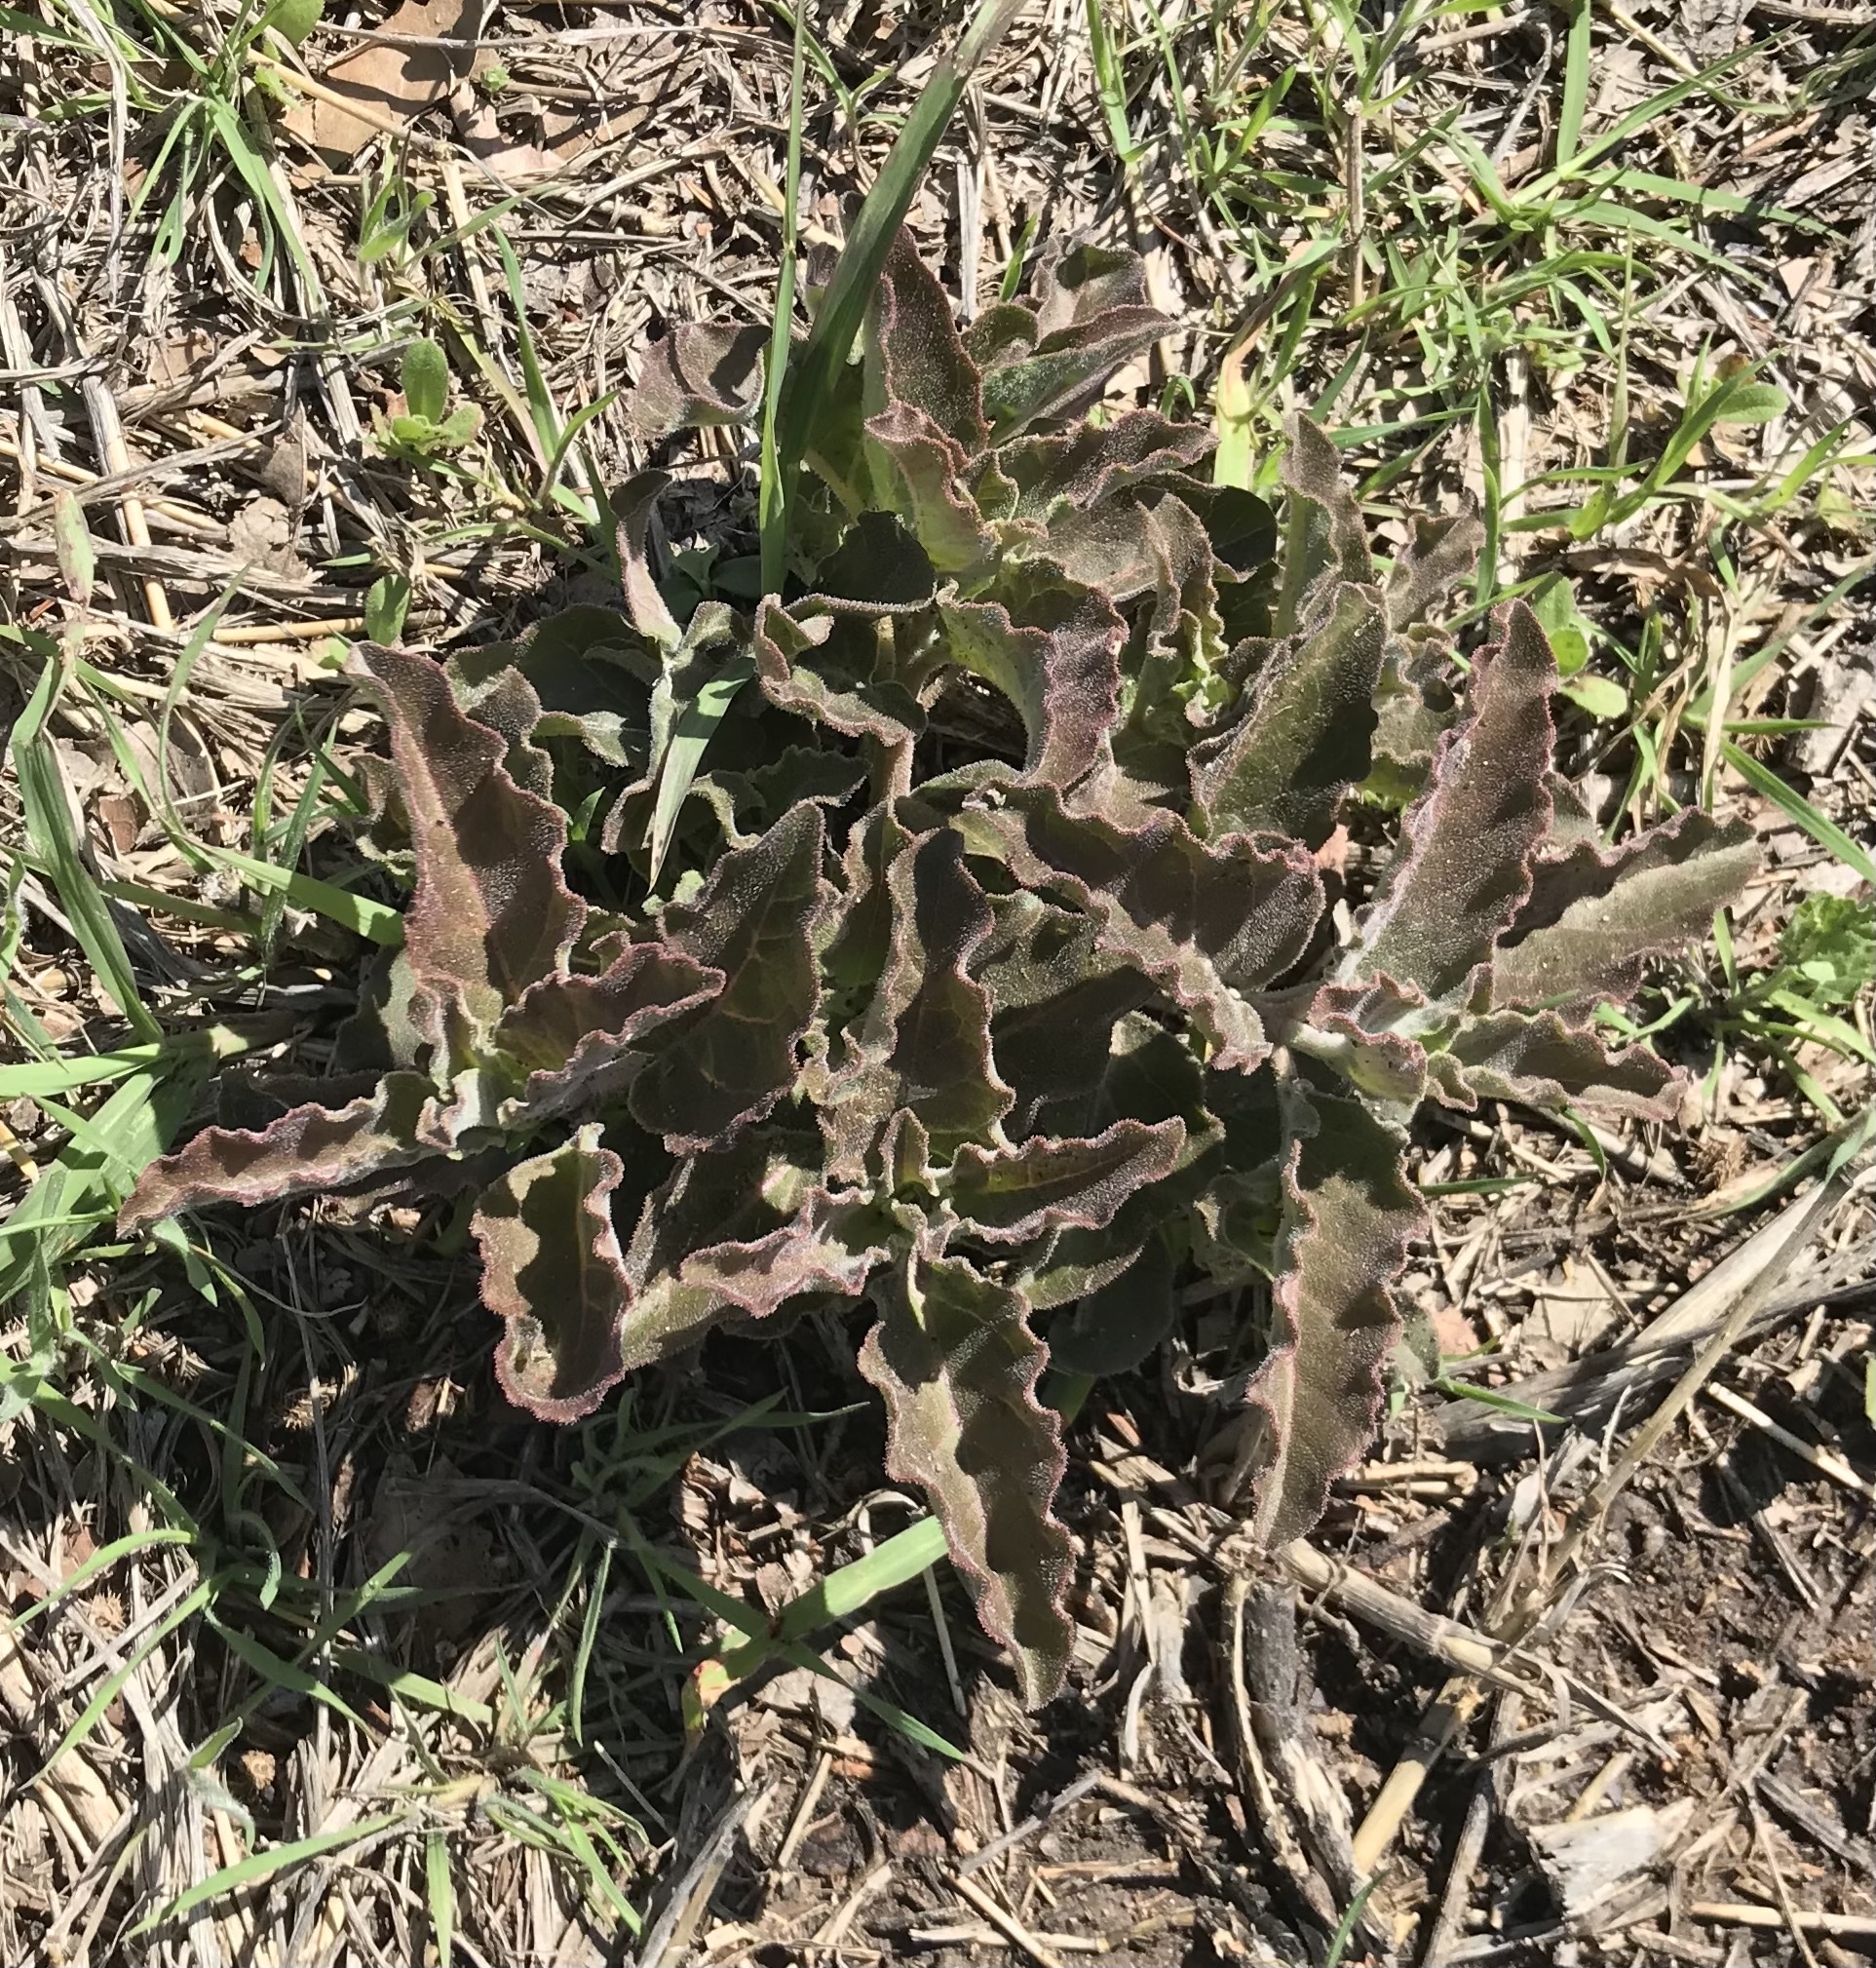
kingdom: Plantae
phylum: Tracheophyta
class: Magnoliopsida
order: Gentianales
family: Apocynaceae
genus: Asclepias
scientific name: Asclepias oenotheroides
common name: Zizotes milkweed
